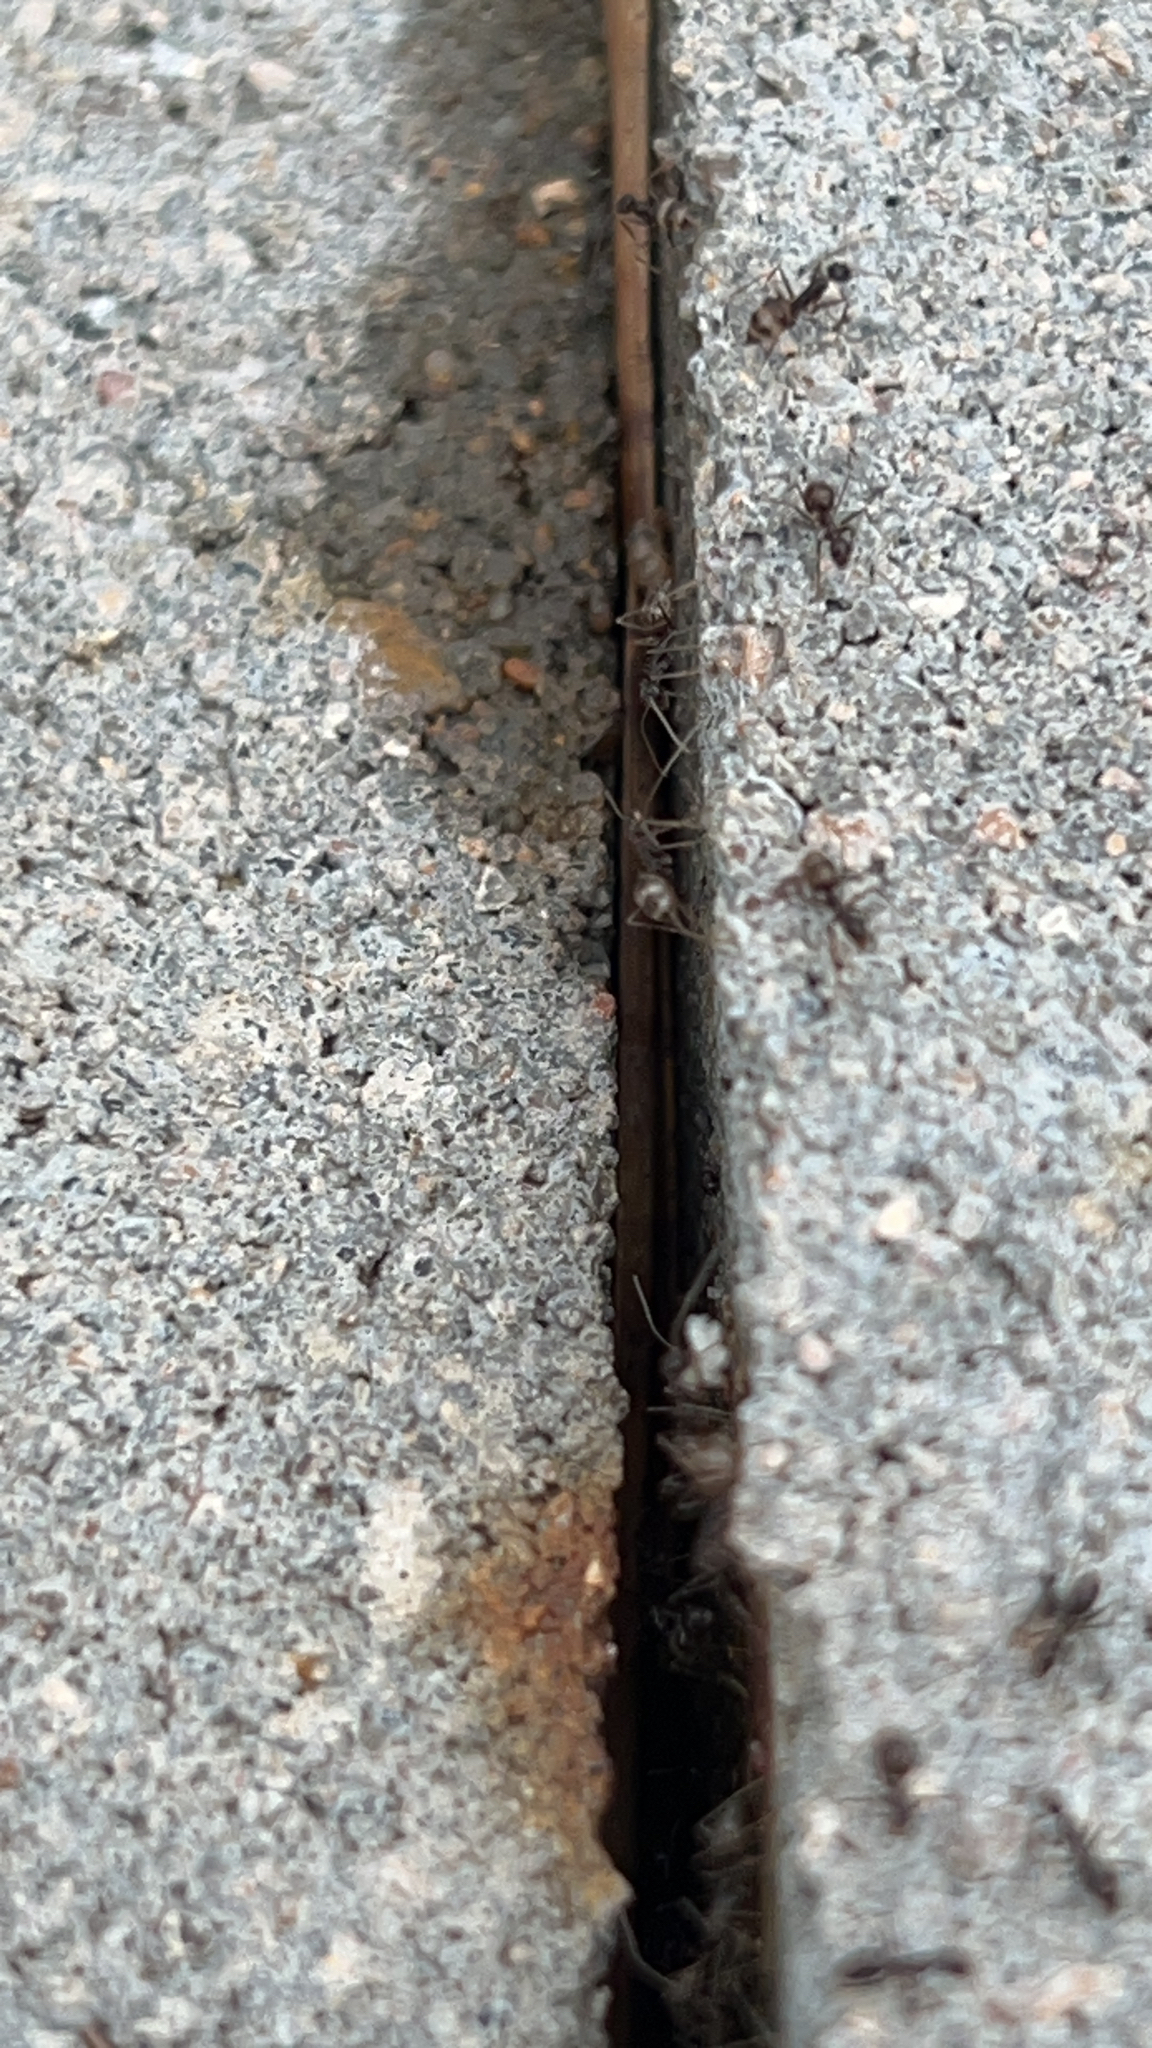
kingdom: Animalia
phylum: Arthropoda
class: Insecta
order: Hymenoptera
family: Formicidae
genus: Paratrechina
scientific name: Paratrechina longicornis
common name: Longhorned crazy ant
